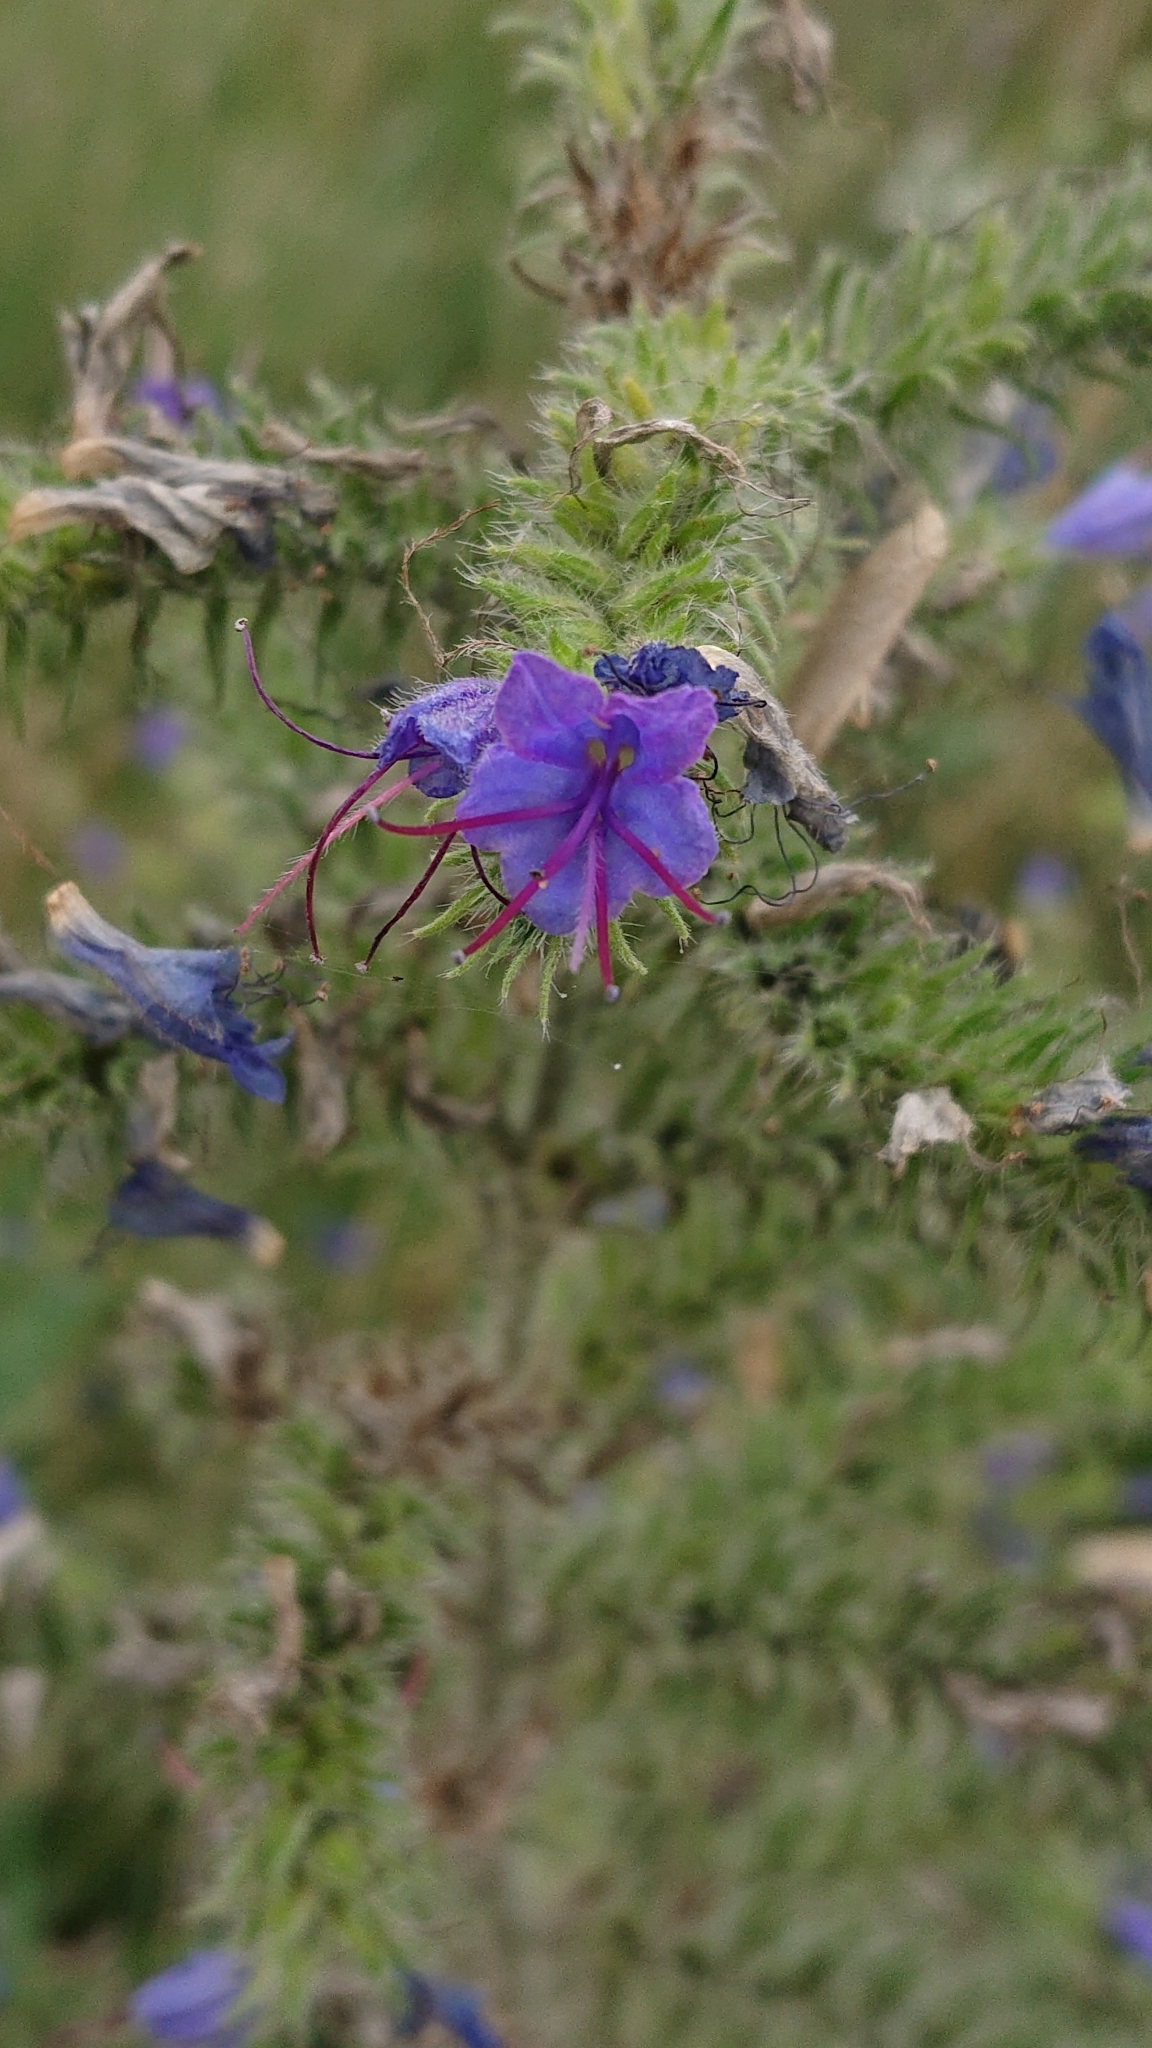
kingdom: Plantae
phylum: Tracheophyta
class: Magnoliopsida
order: Boraginales
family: Boraginaceae
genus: Echium
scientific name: Echium vulgare
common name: Common viper's bugloss
